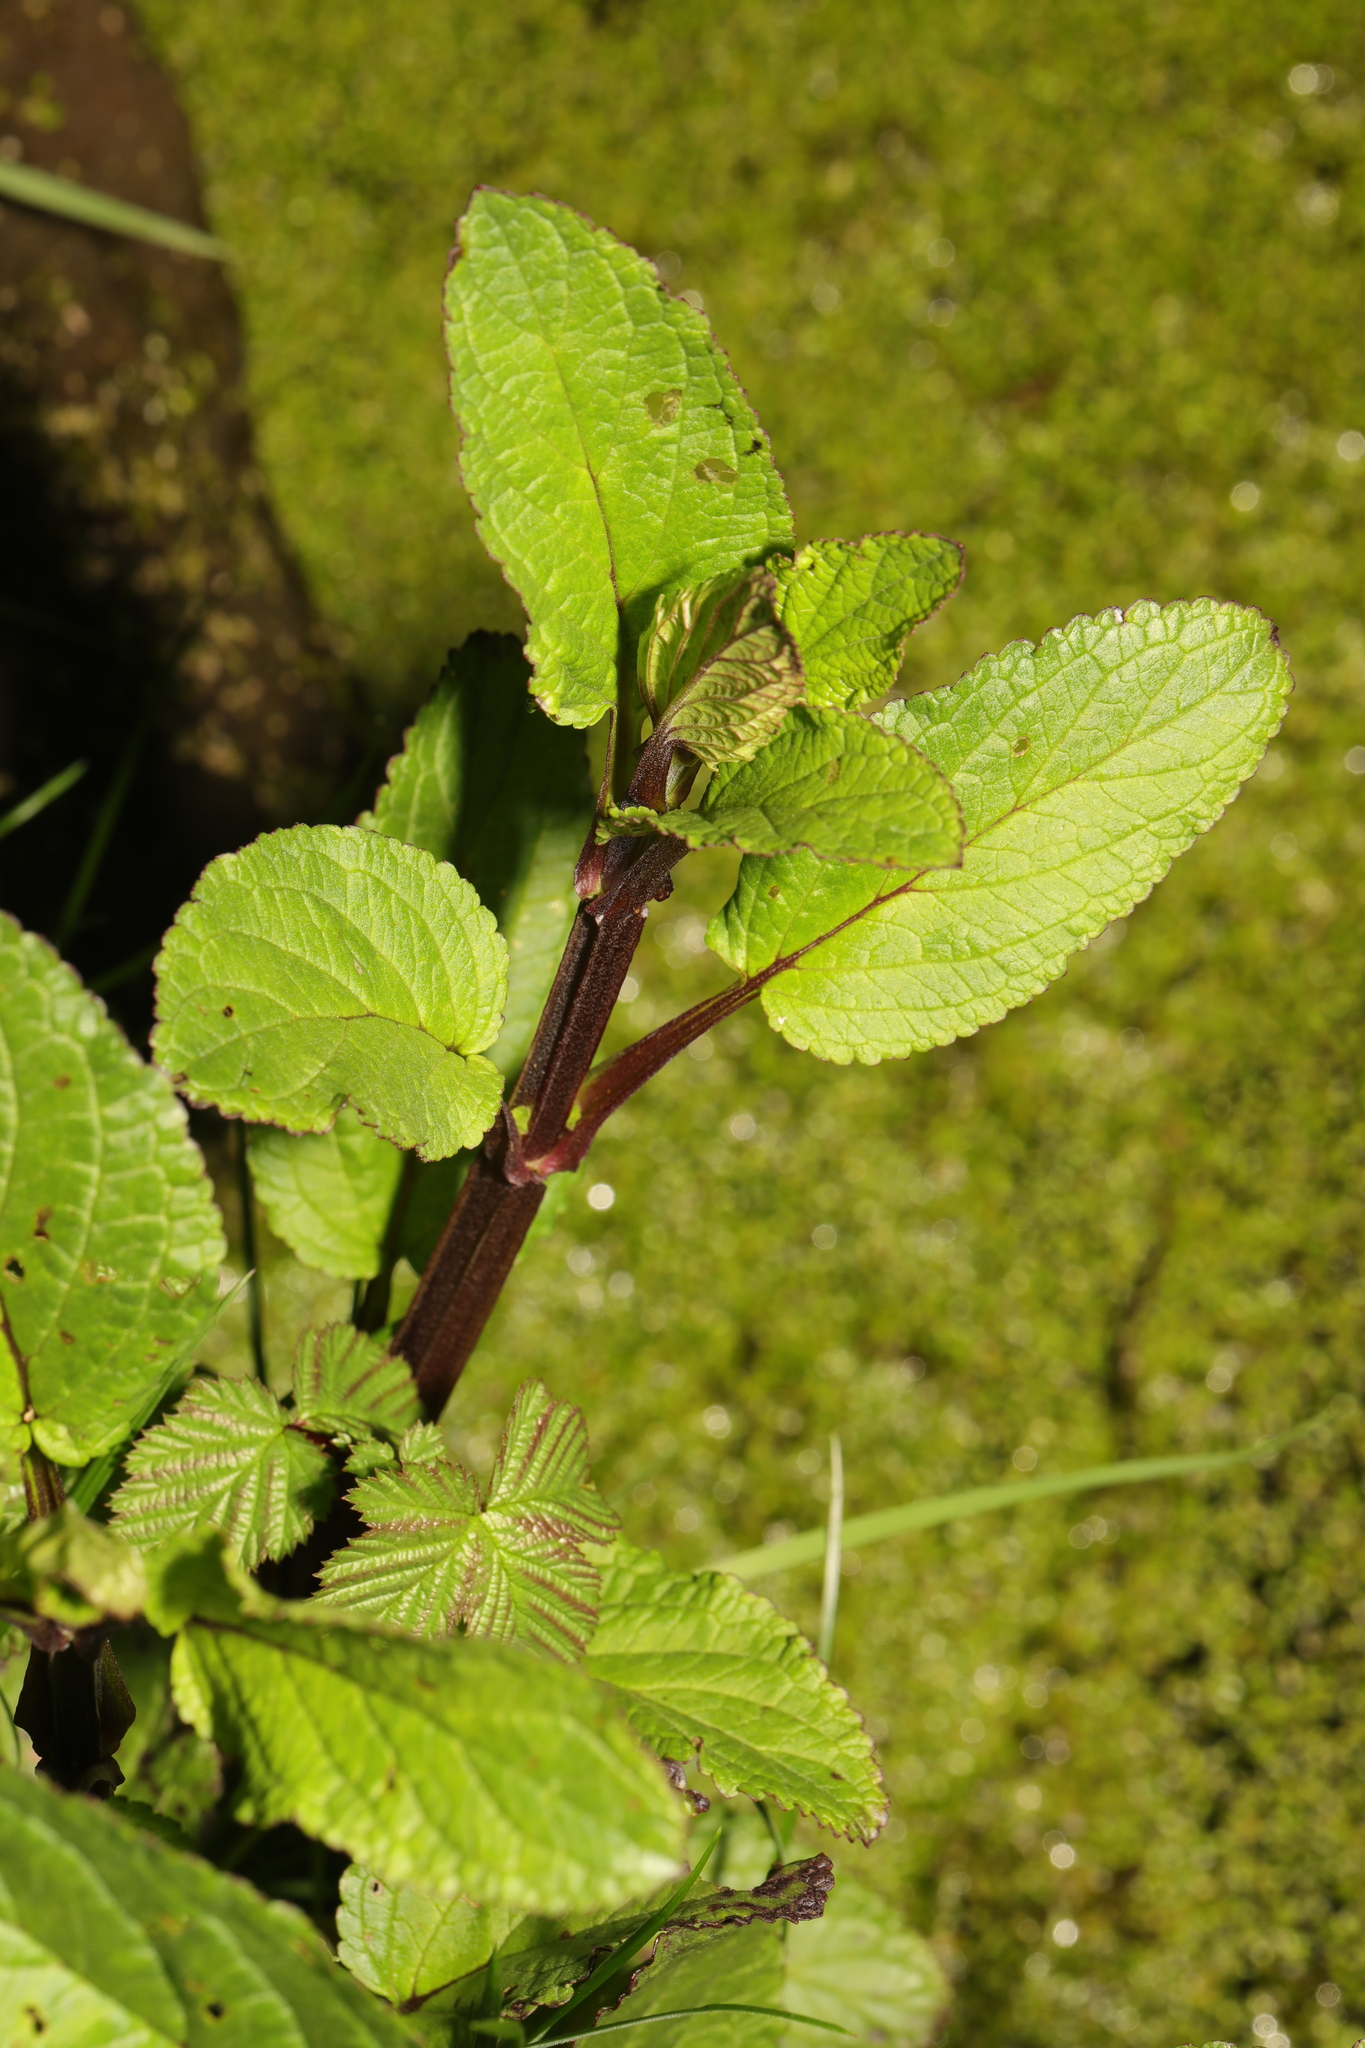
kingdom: Plantae
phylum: Tracheophyta
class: Magnoliopsida
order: Lamiales
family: Scrophulariaceae
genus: Scrophularia
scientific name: Scrophularia auriculata
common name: Water betony
